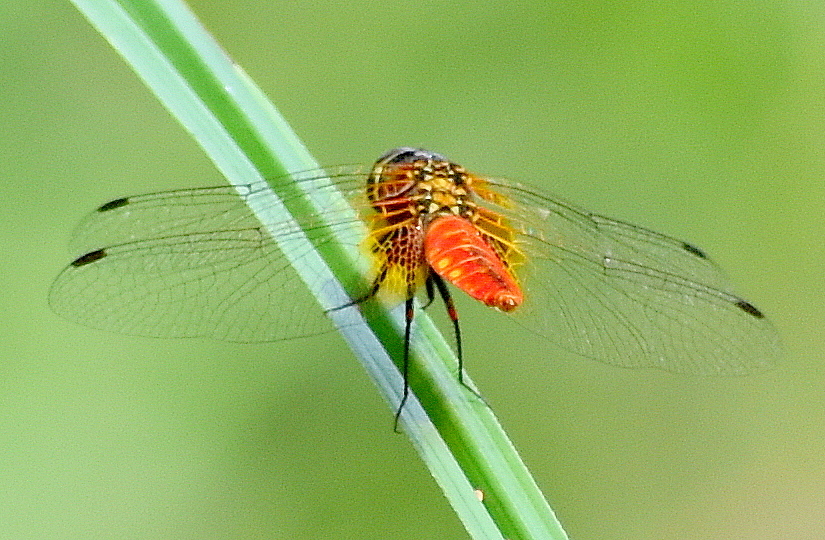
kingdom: Animalia
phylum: Arthropoda
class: Insecta
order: Odonata
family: Libellulidae
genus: Aethriamanta
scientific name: Aethriamanta brevipennis
